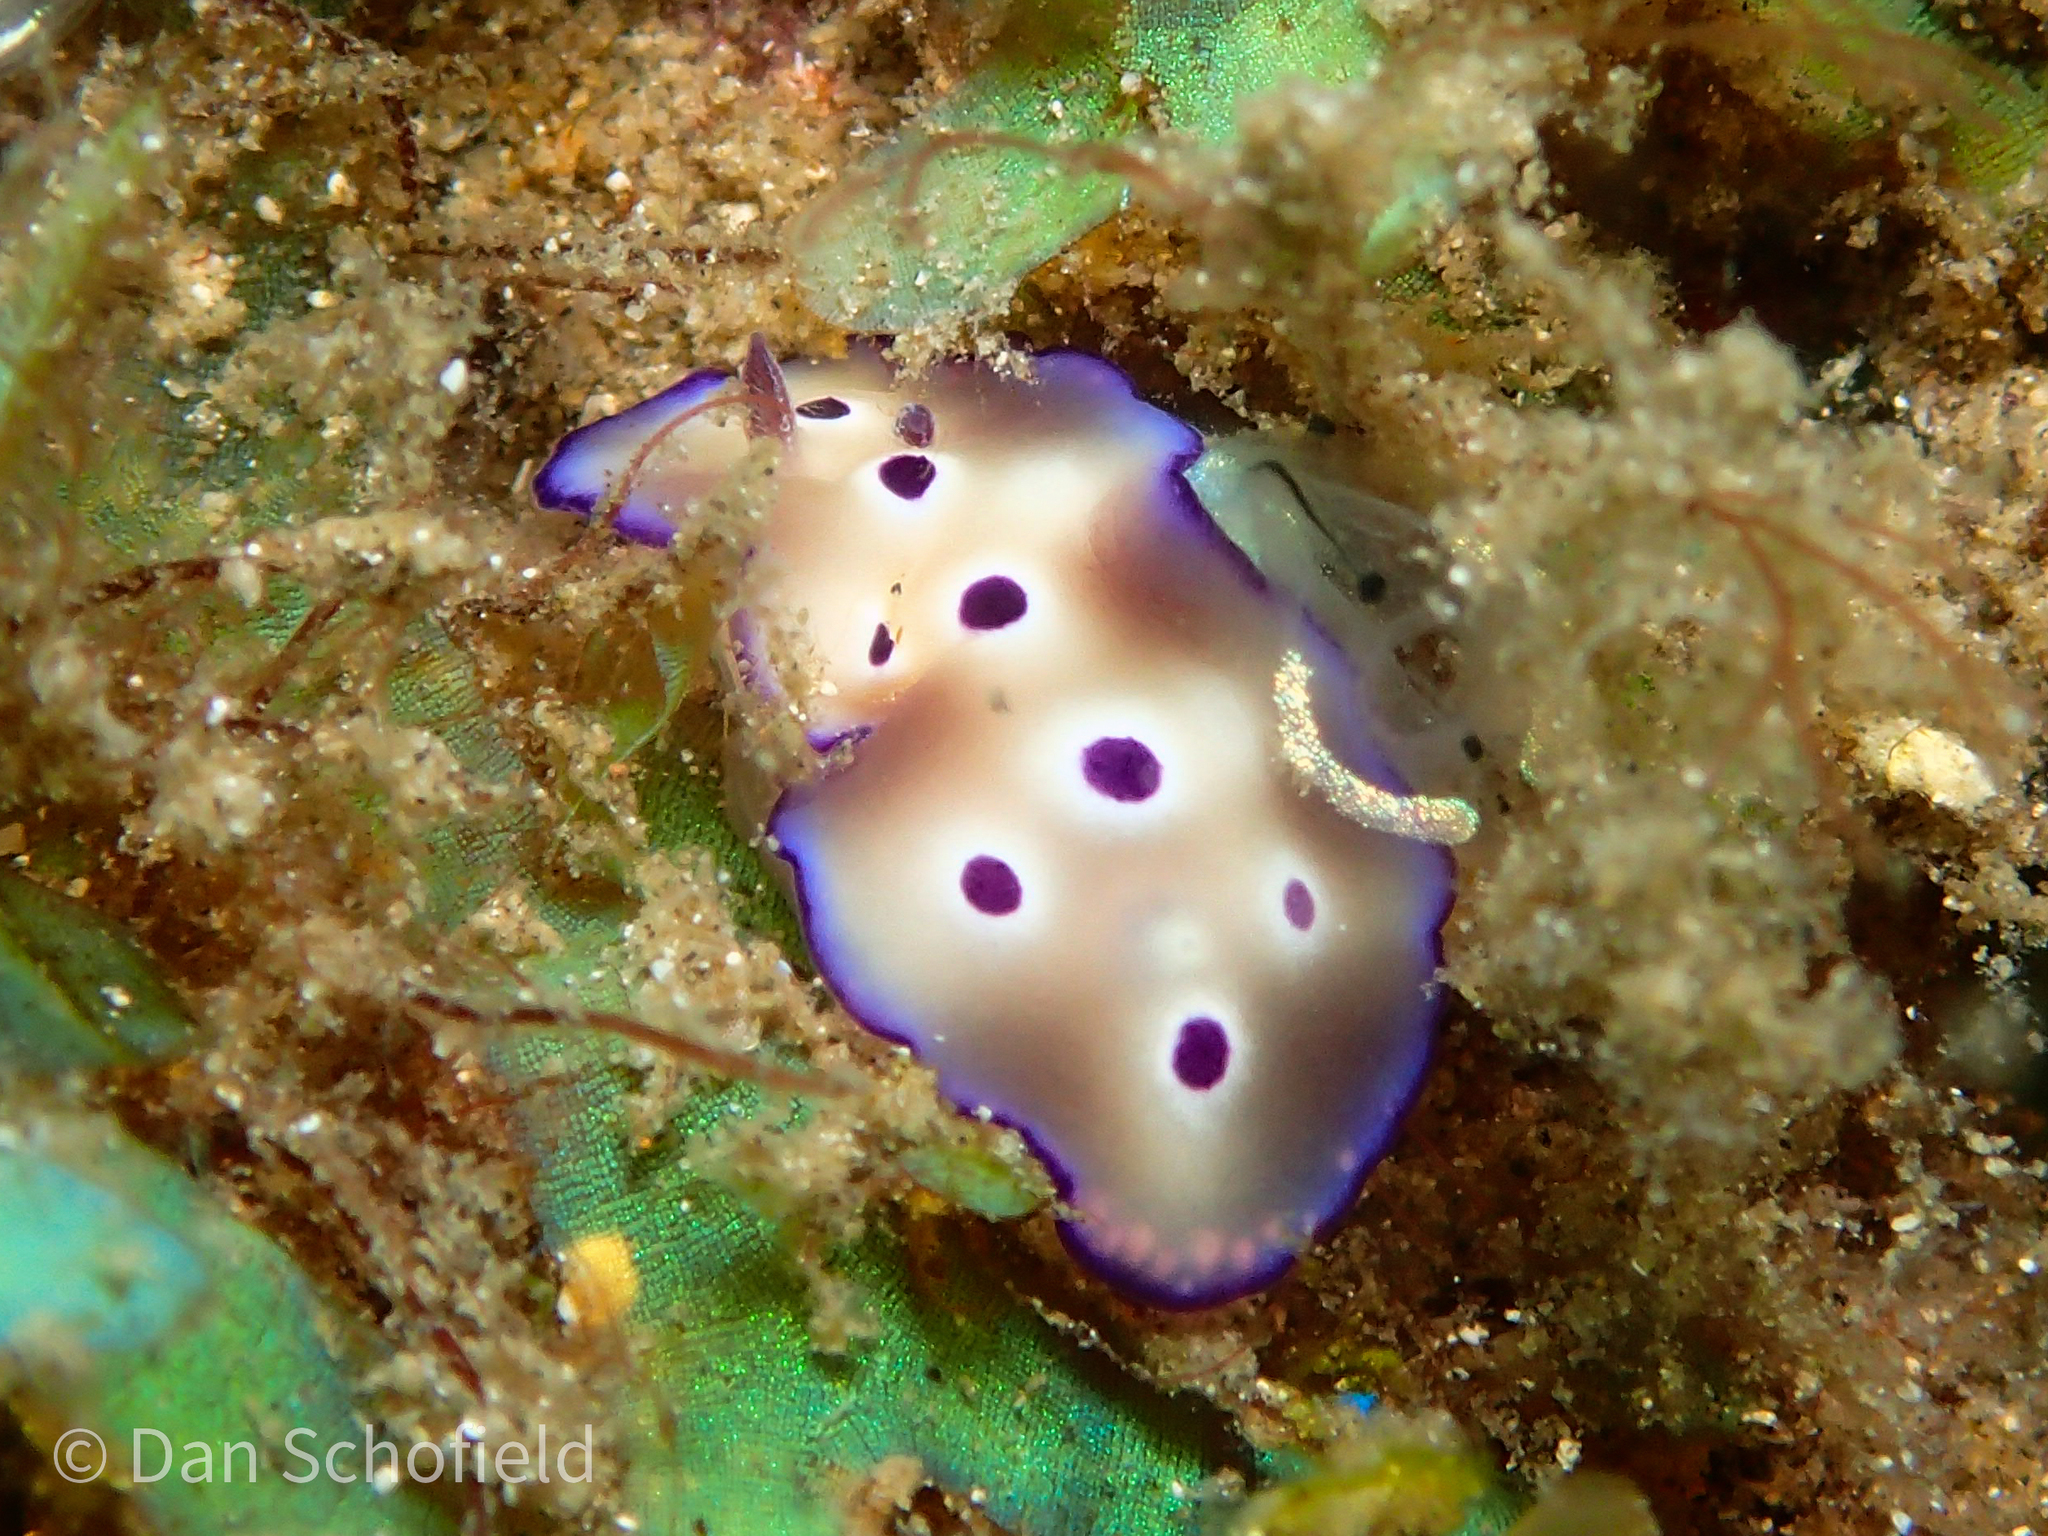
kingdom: Animalia
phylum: Mollusca
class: Gastropoda
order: Nudibranchia
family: Chromodorididae
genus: Hypselodoris
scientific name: Hypselodoris tryoni
